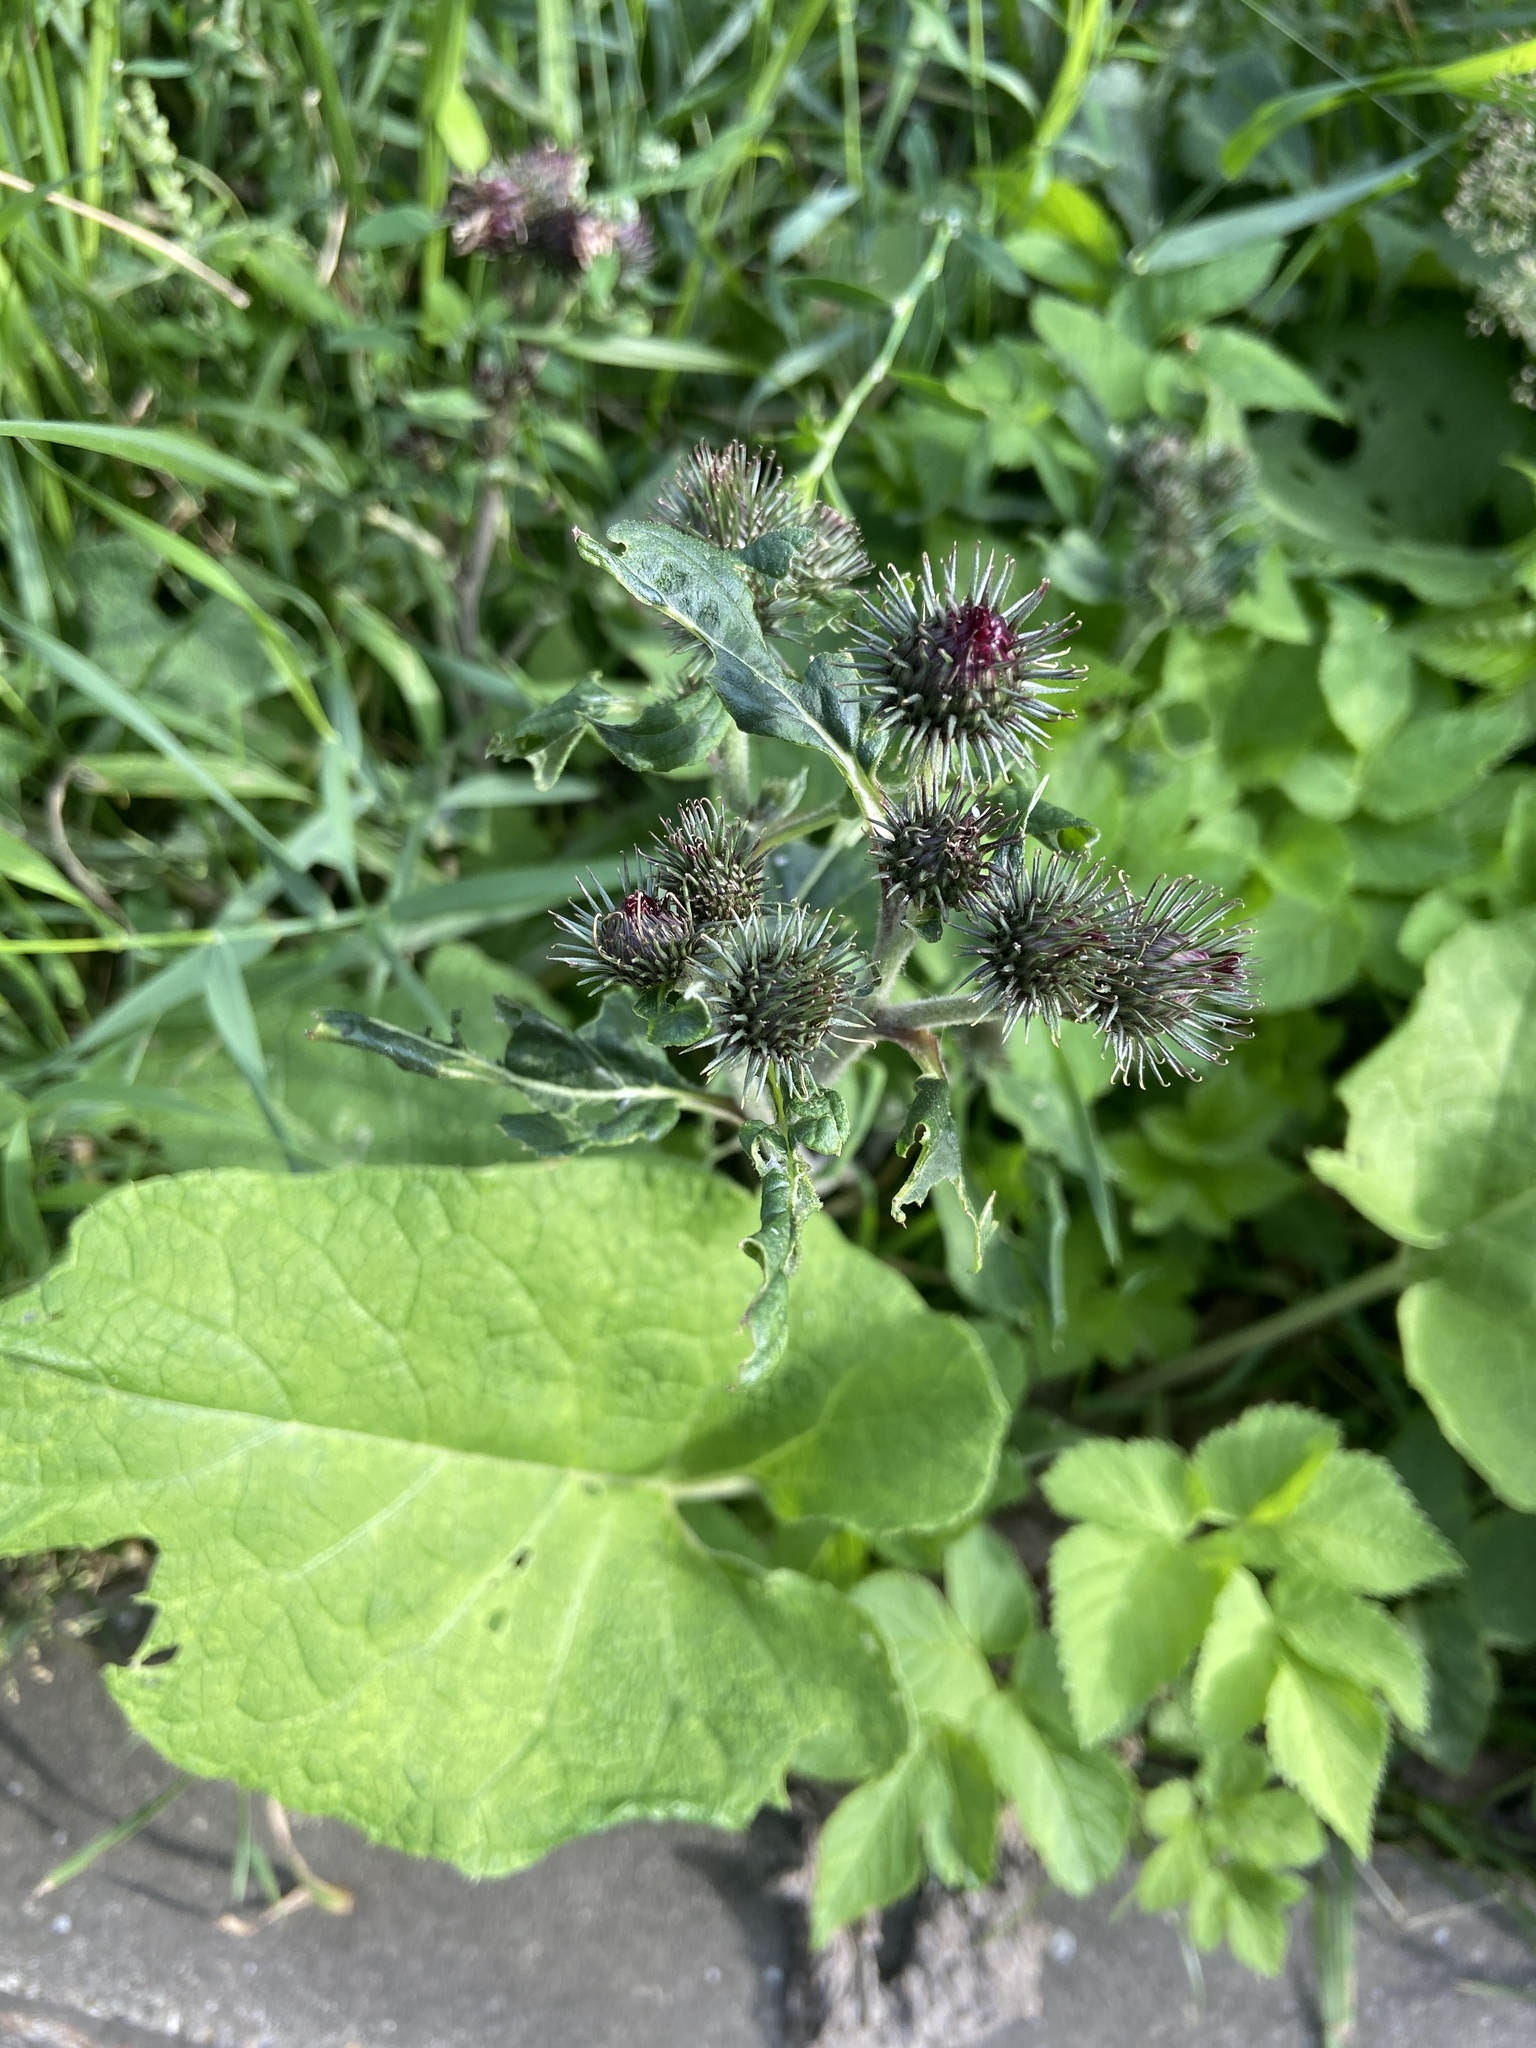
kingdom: Plantae
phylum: Tracheophyta
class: Magnoliopsida
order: Asterales
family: Asteraceae
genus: Arctium
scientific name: Arctium lappa
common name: Greater burdock
